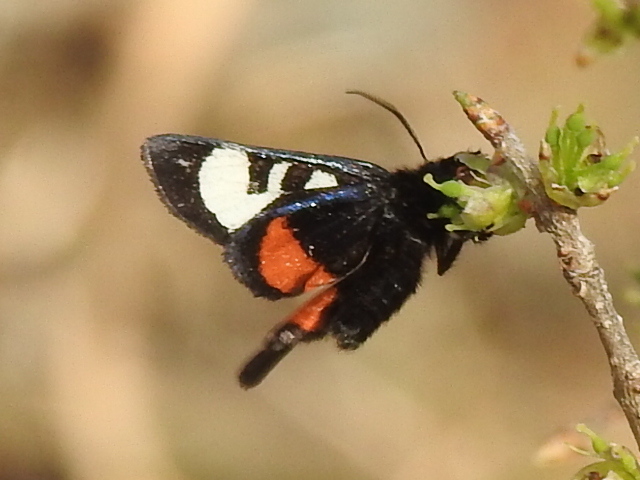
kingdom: Animalia
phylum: Arthropoda
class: Insecta
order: Lepidoptera
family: Noctuidae
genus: Psychomorpha
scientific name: Psychomorpha epimenis
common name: Grapevine epimenis moth
